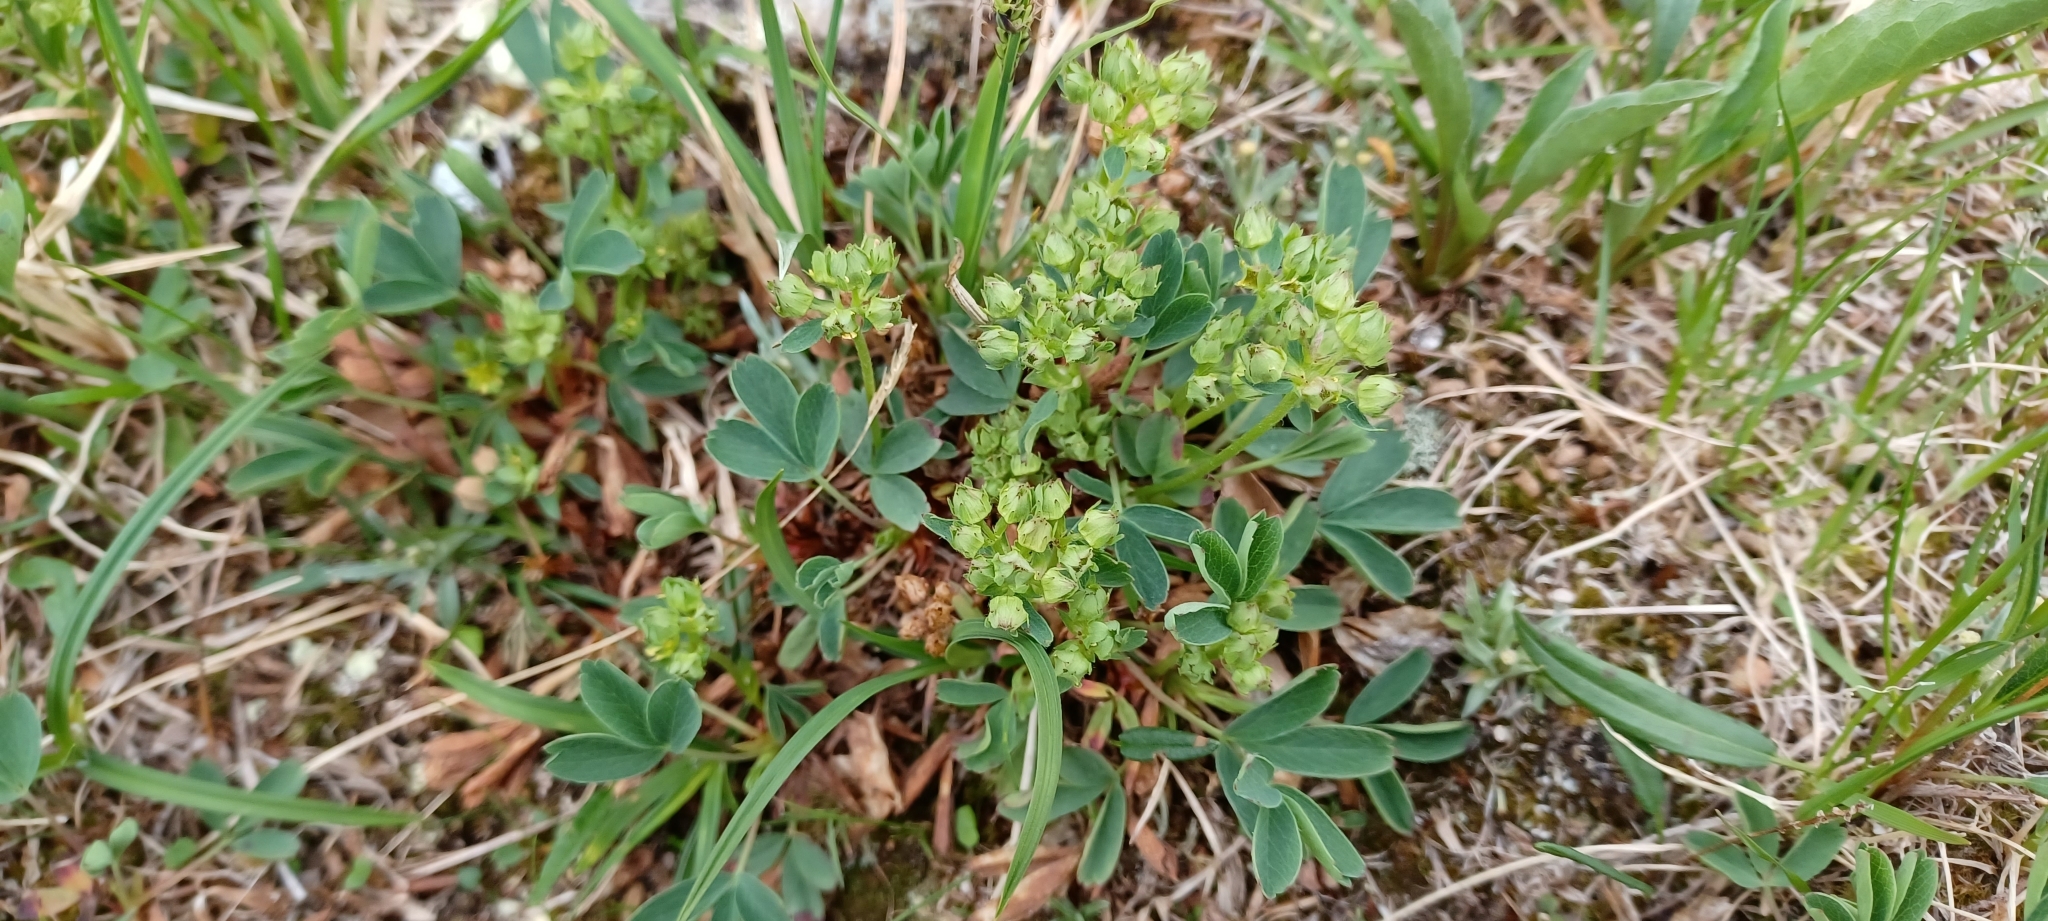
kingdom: Plantae
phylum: Tracheophyta
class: Magnoliopsida
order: Rosales
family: Rosaceae
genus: Sibbaldia
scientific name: Sibbaldia procumbens
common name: Creeping sibbaldia
